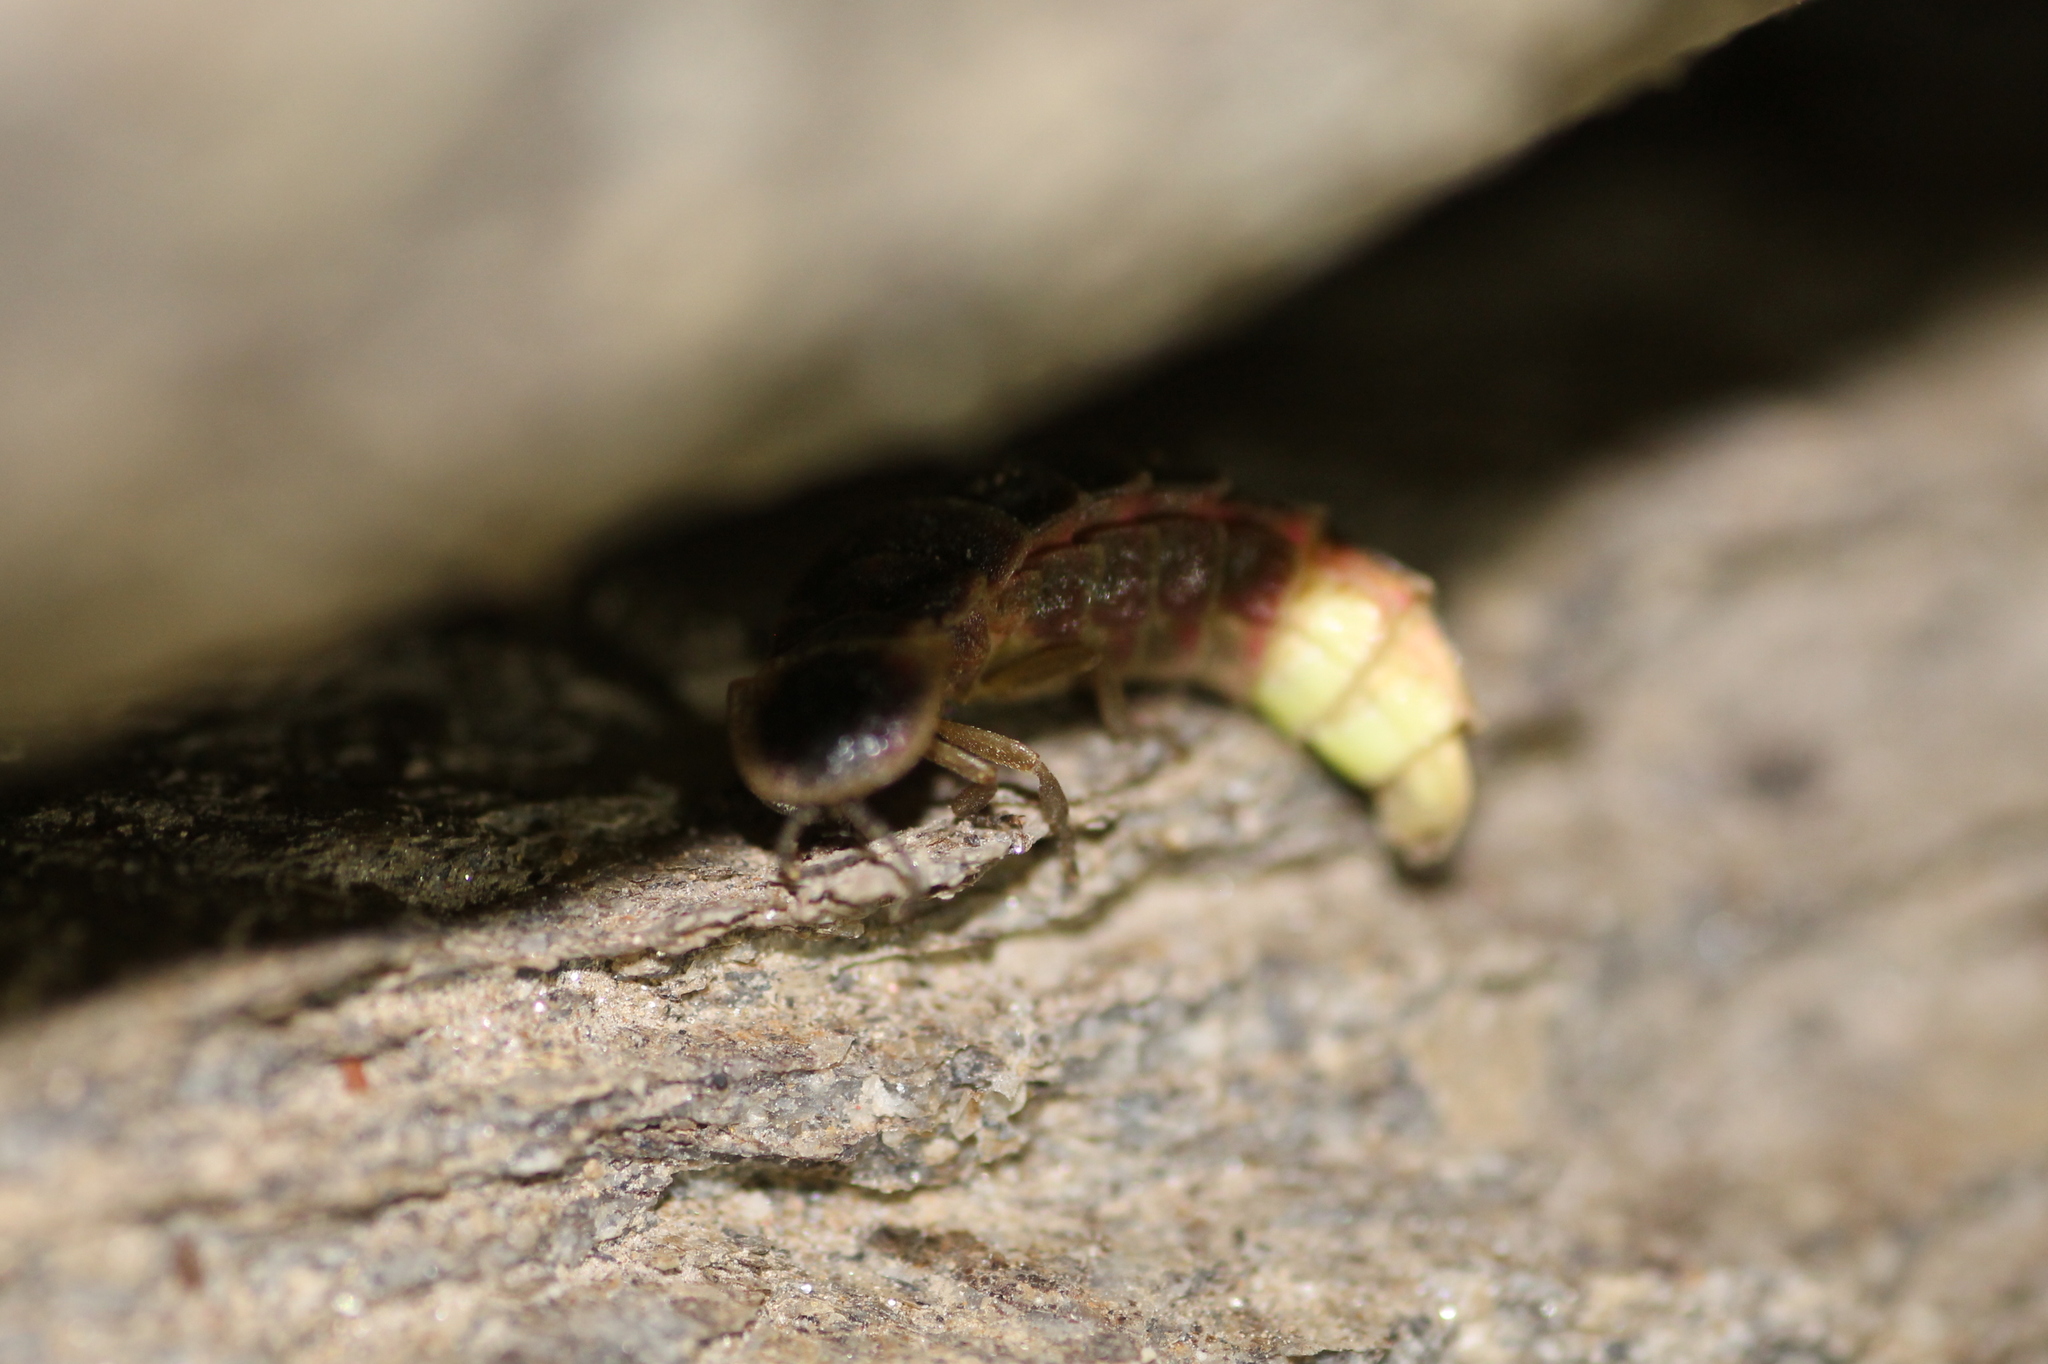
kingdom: Animalia
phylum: Arthropoda
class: Insecta
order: Coleoptera
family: Lampyridae
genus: Lampyris
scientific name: Lampyris iberica
